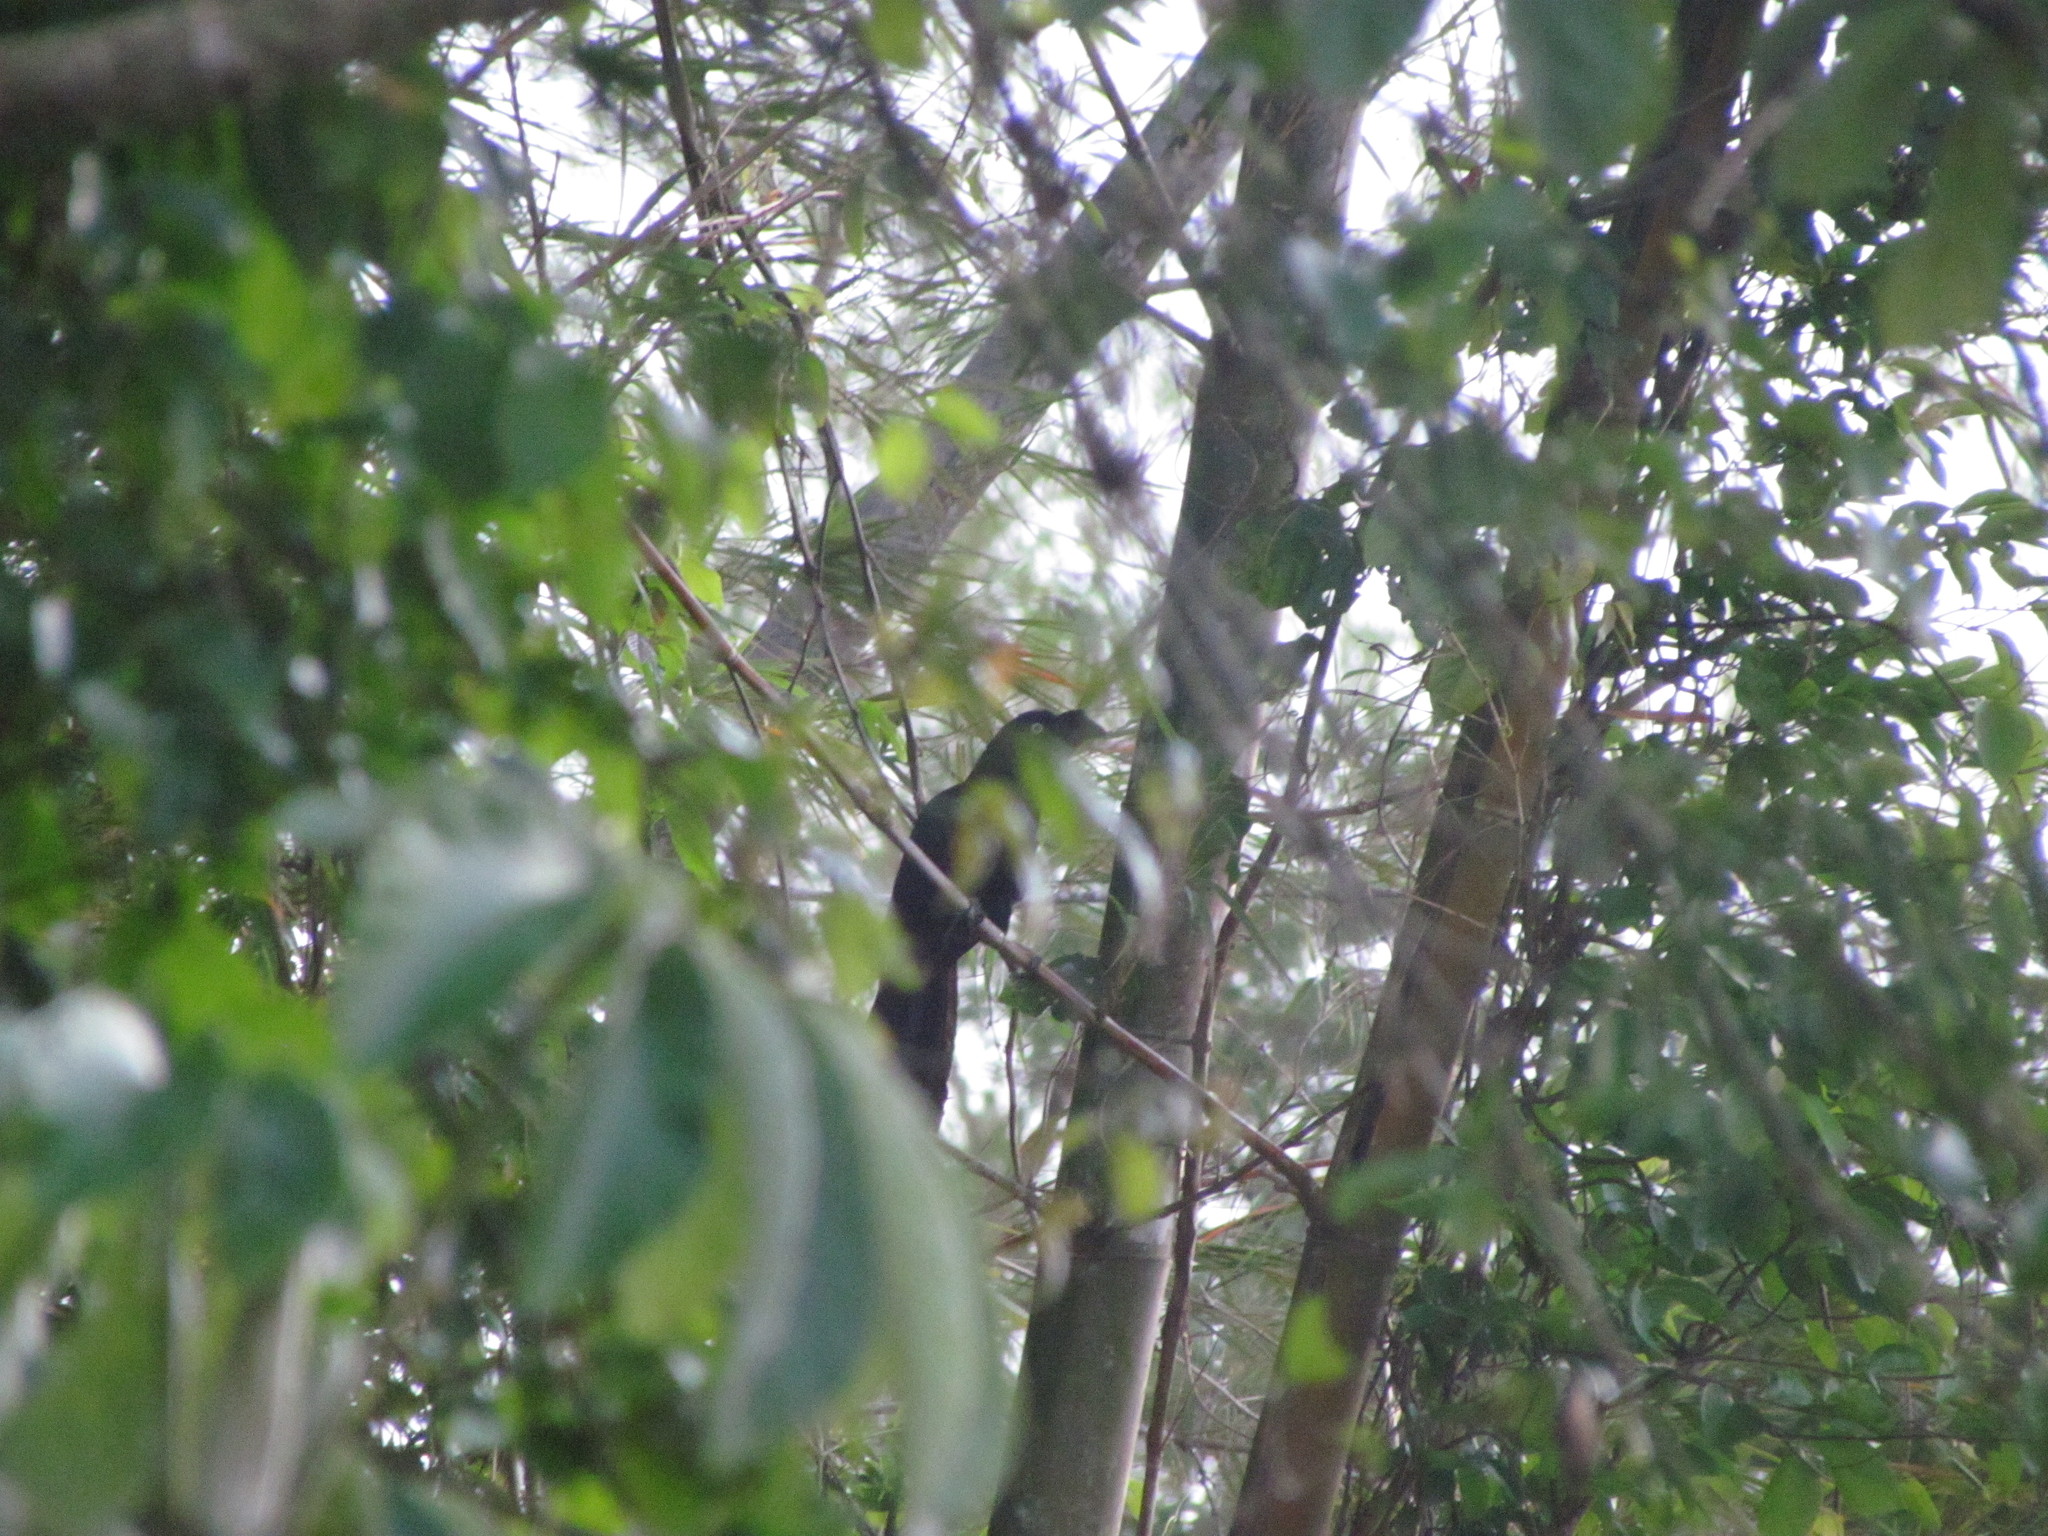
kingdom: Animalia
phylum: Chordata
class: Aves
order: Cuculiformes
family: Cuculidae
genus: Crotophaga
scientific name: Crotophaga major
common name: Greater ani
